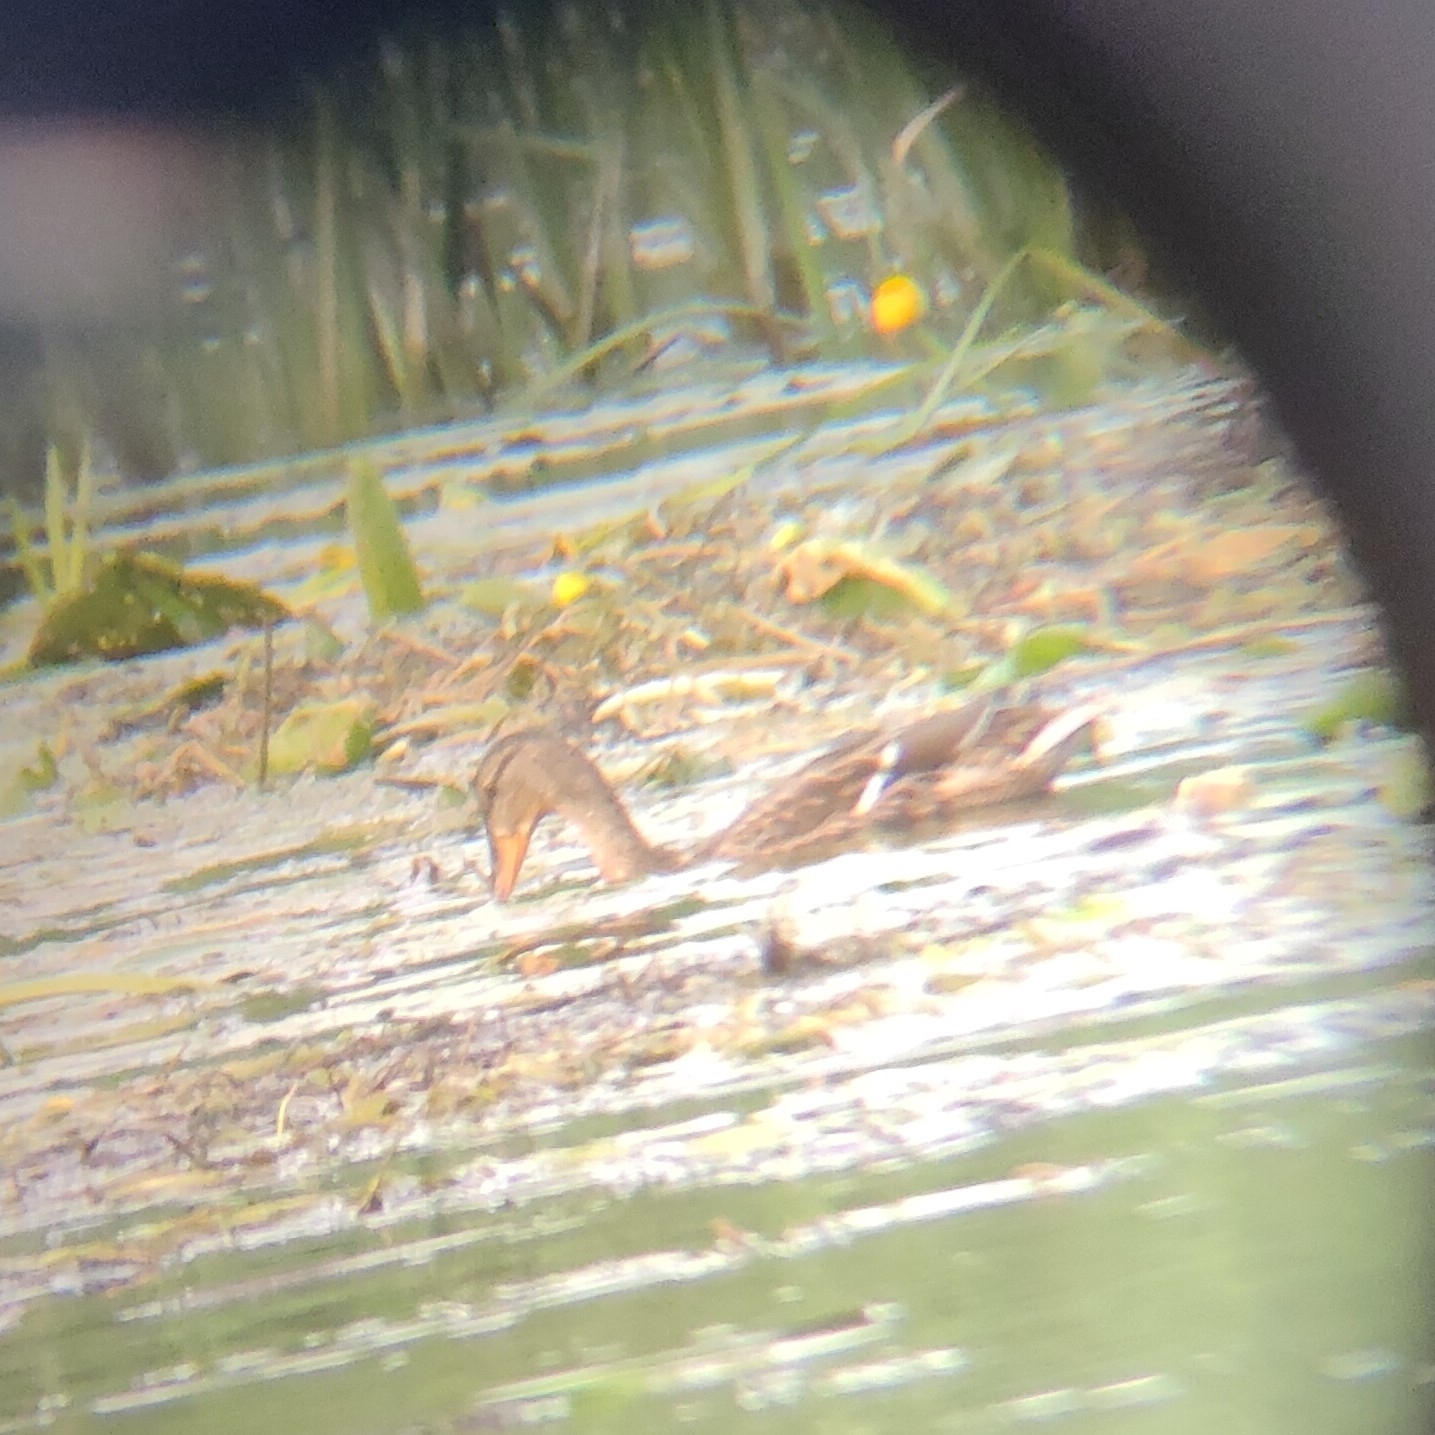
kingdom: Animalia
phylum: Chordata
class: Aves
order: Anseriformes
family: Anatidae
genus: Anas
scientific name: Anas platyrhynchos
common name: Mallard
